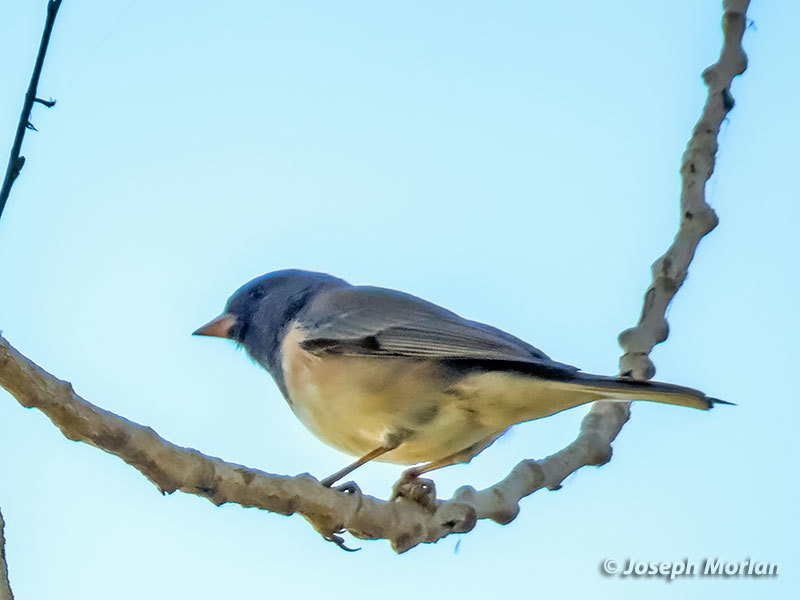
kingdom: Animalia
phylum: Chordata
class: Aves
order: Passeriformes
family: Passerellidae
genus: Junco
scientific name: Junco hyemalis
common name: Dark-eyed junco
